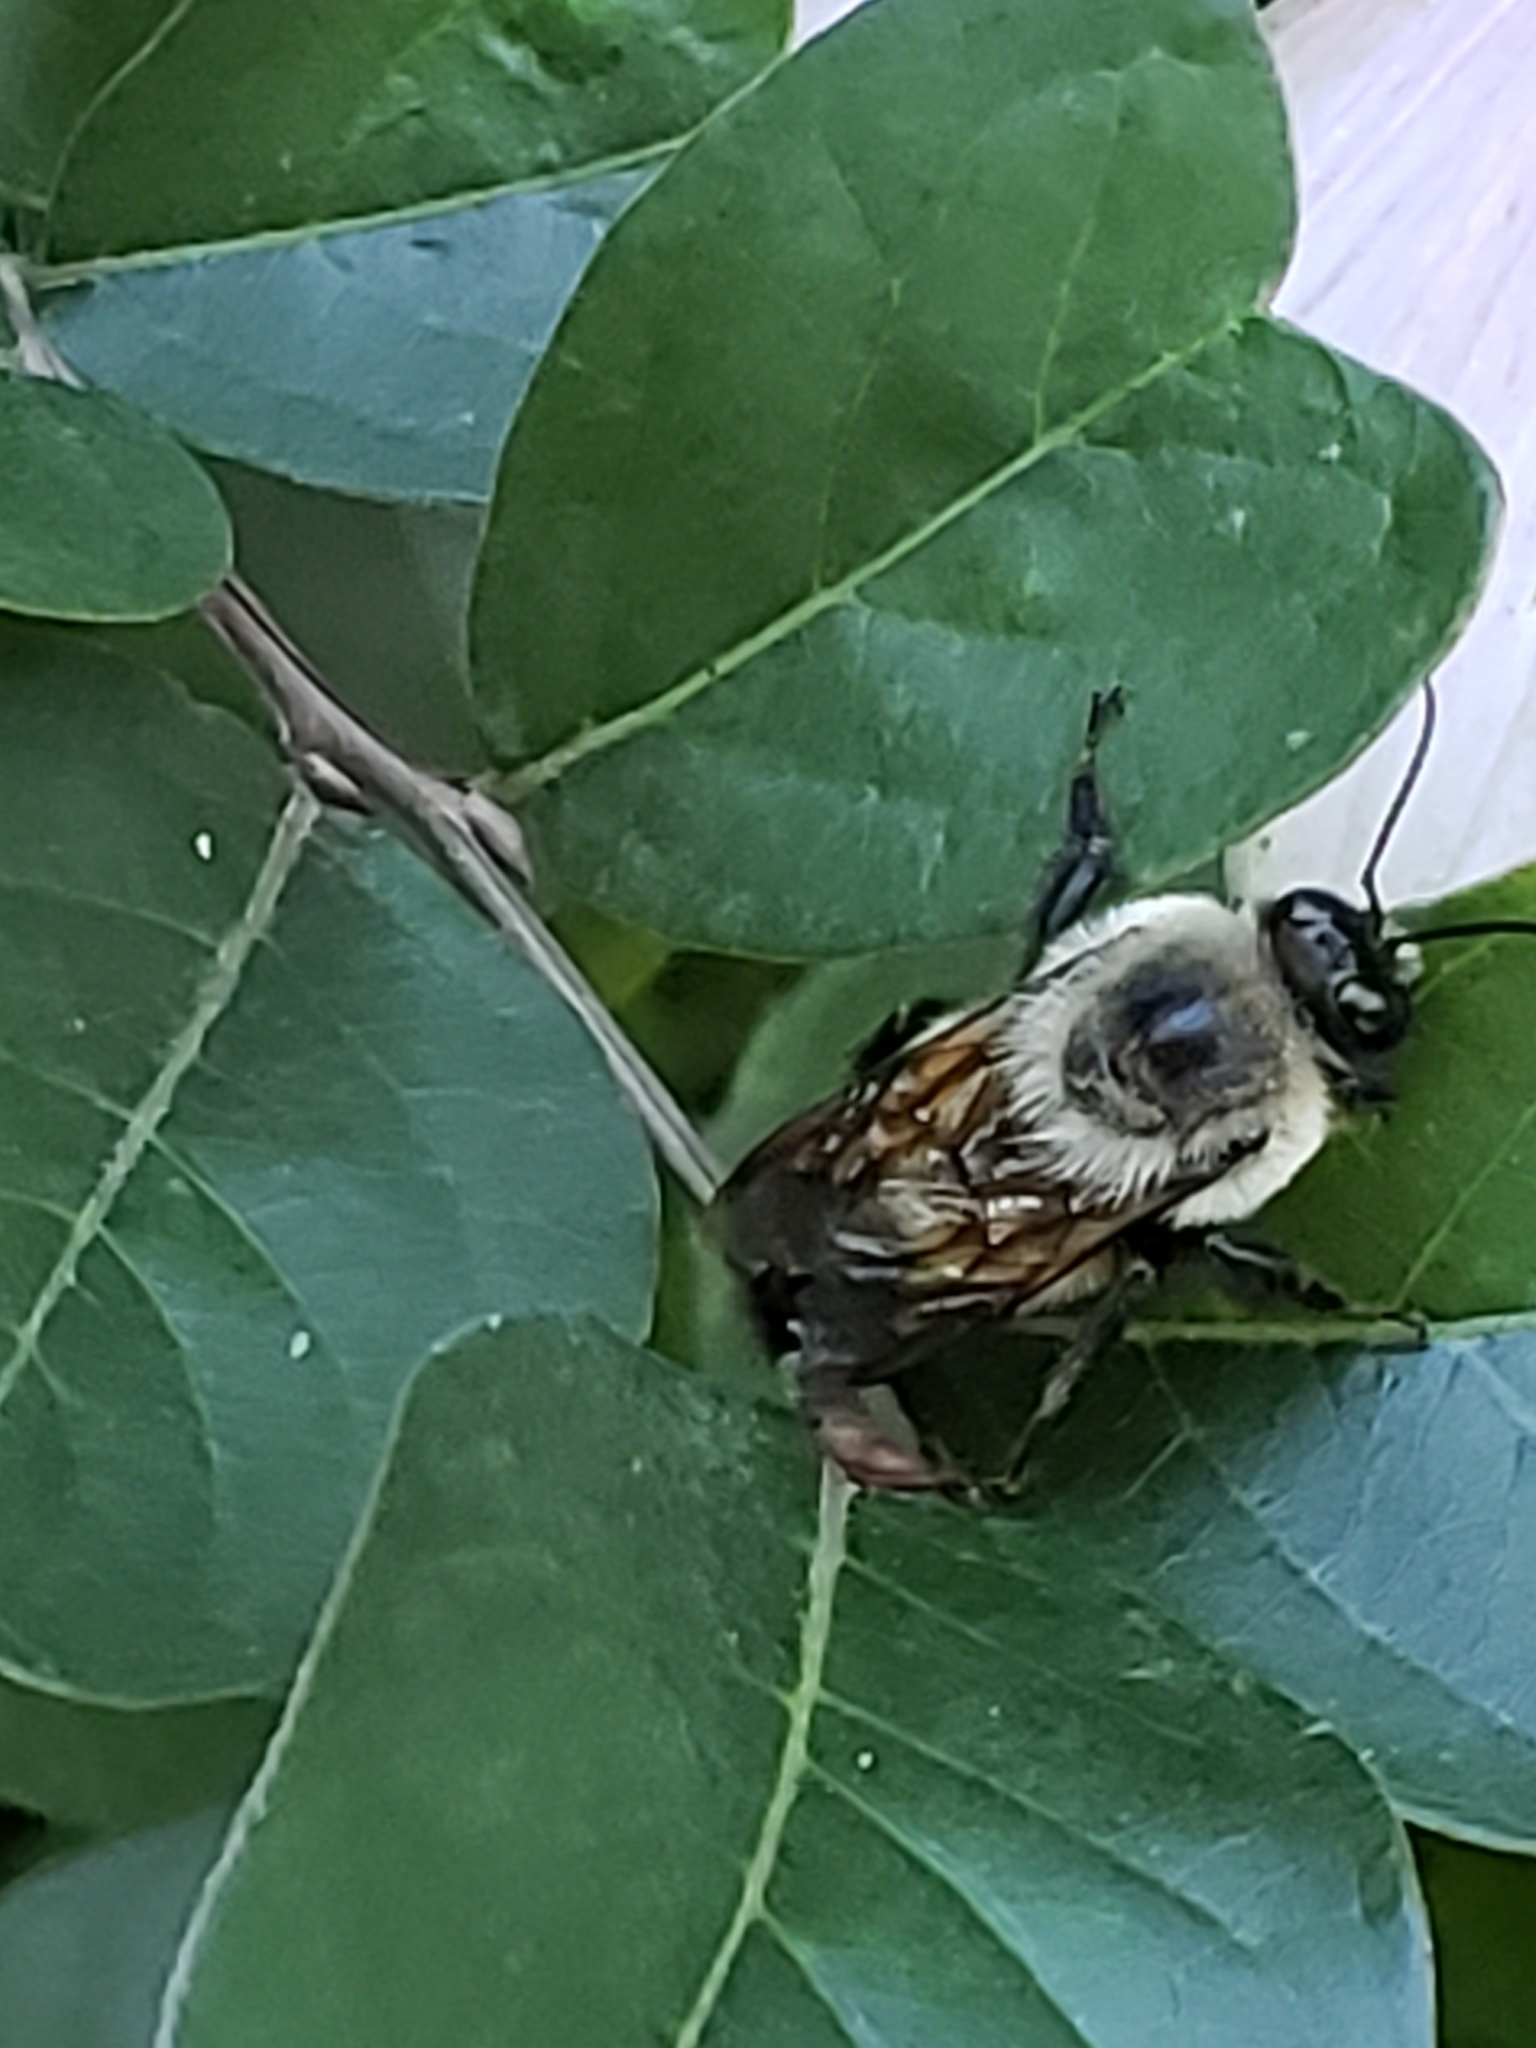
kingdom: Animalia
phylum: Arthropoda
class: Insecta
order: Hymenoptera
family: Apidae
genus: Bombus
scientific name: Bombus griseocollis
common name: Brown-belted bumble bee
